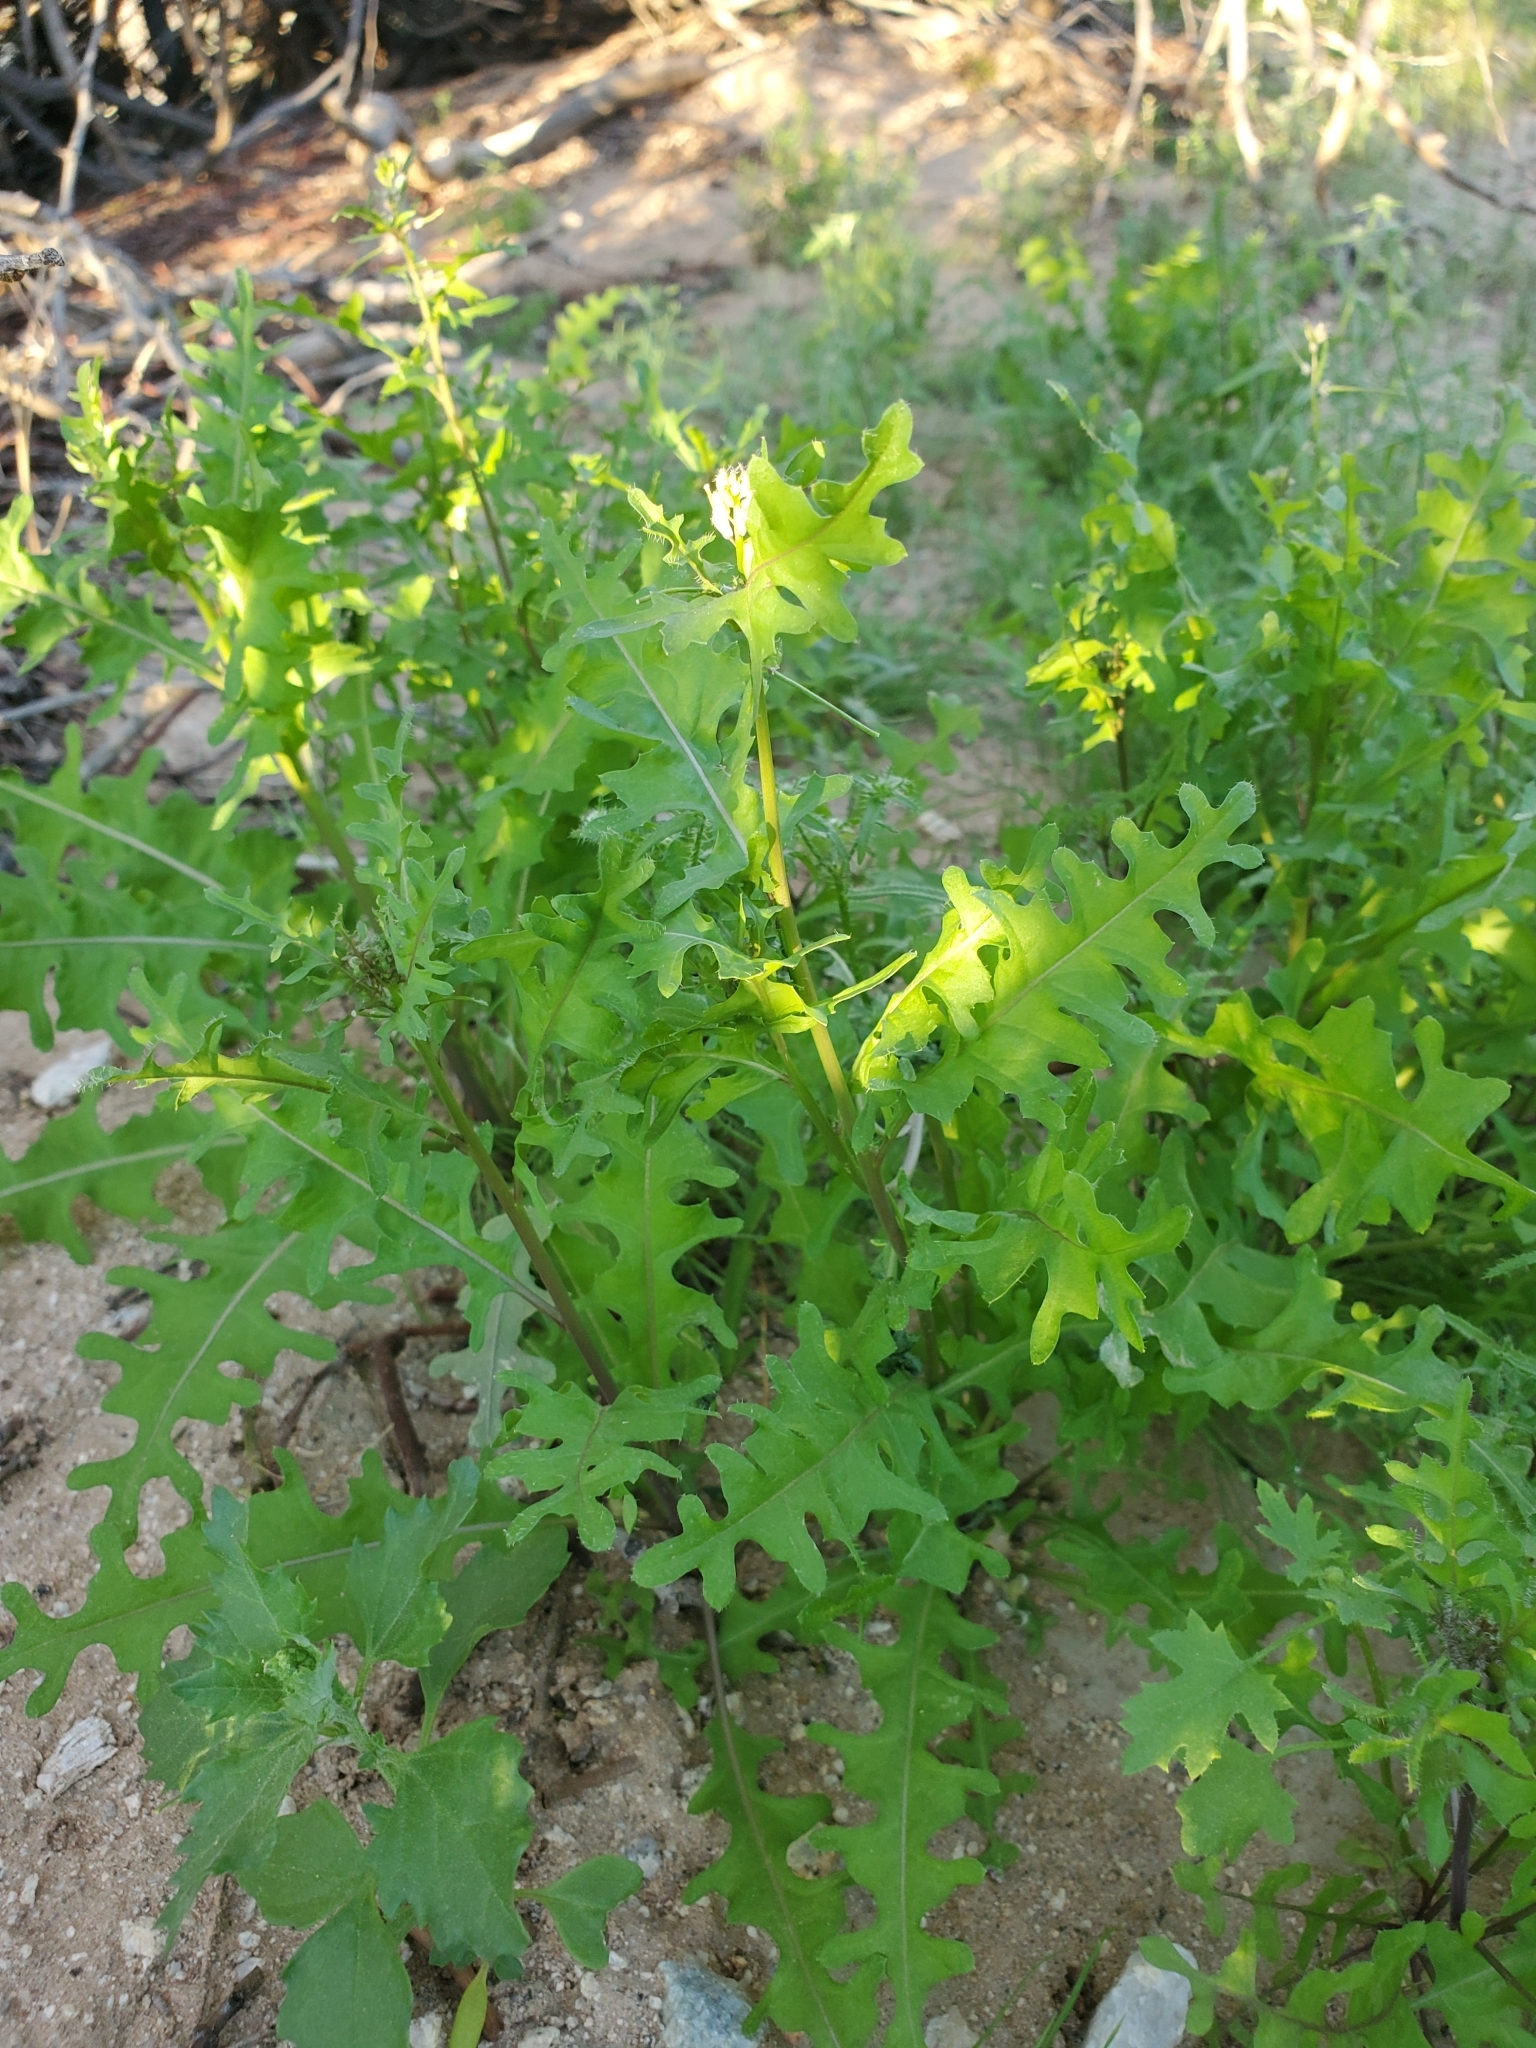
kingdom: Plantae
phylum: Tracheophyta
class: Magnoliopsida
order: Brassicales
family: Brassicaceae
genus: Streptanthus
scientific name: Streptanthus lasiophyllus
